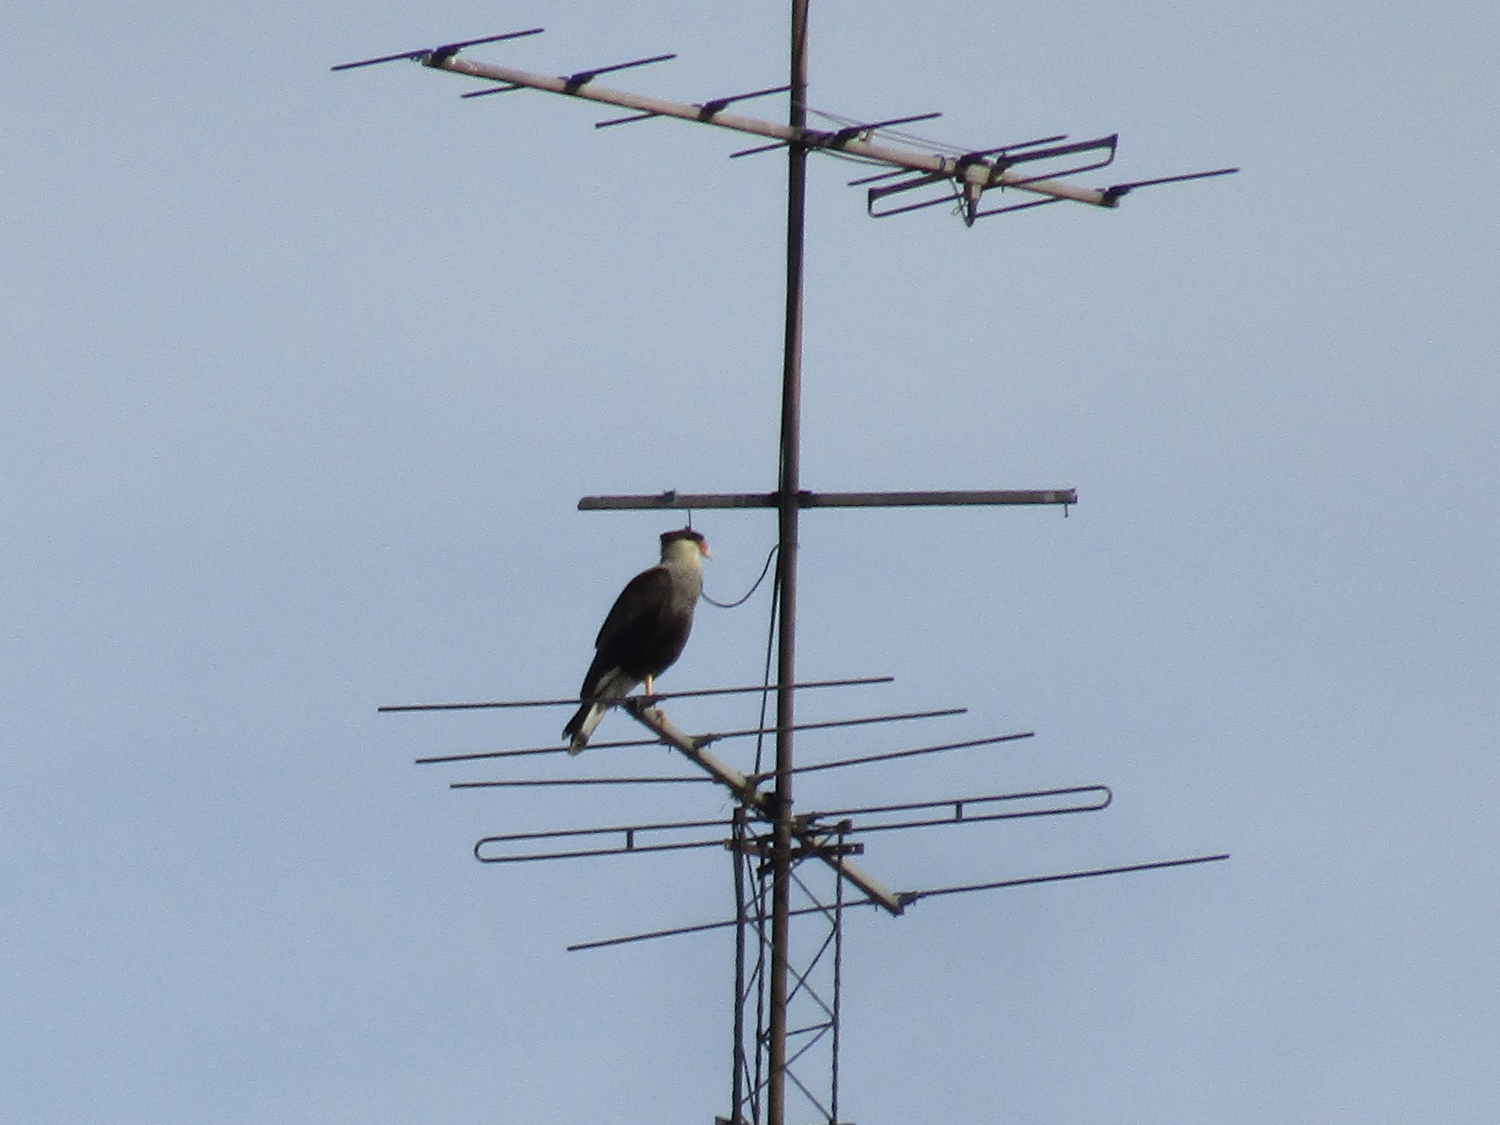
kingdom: Animalia
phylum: Chordata
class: Aves
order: Falconiformes
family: Falconidae
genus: Caracara
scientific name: Caracara plancus
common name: Southern caracara
